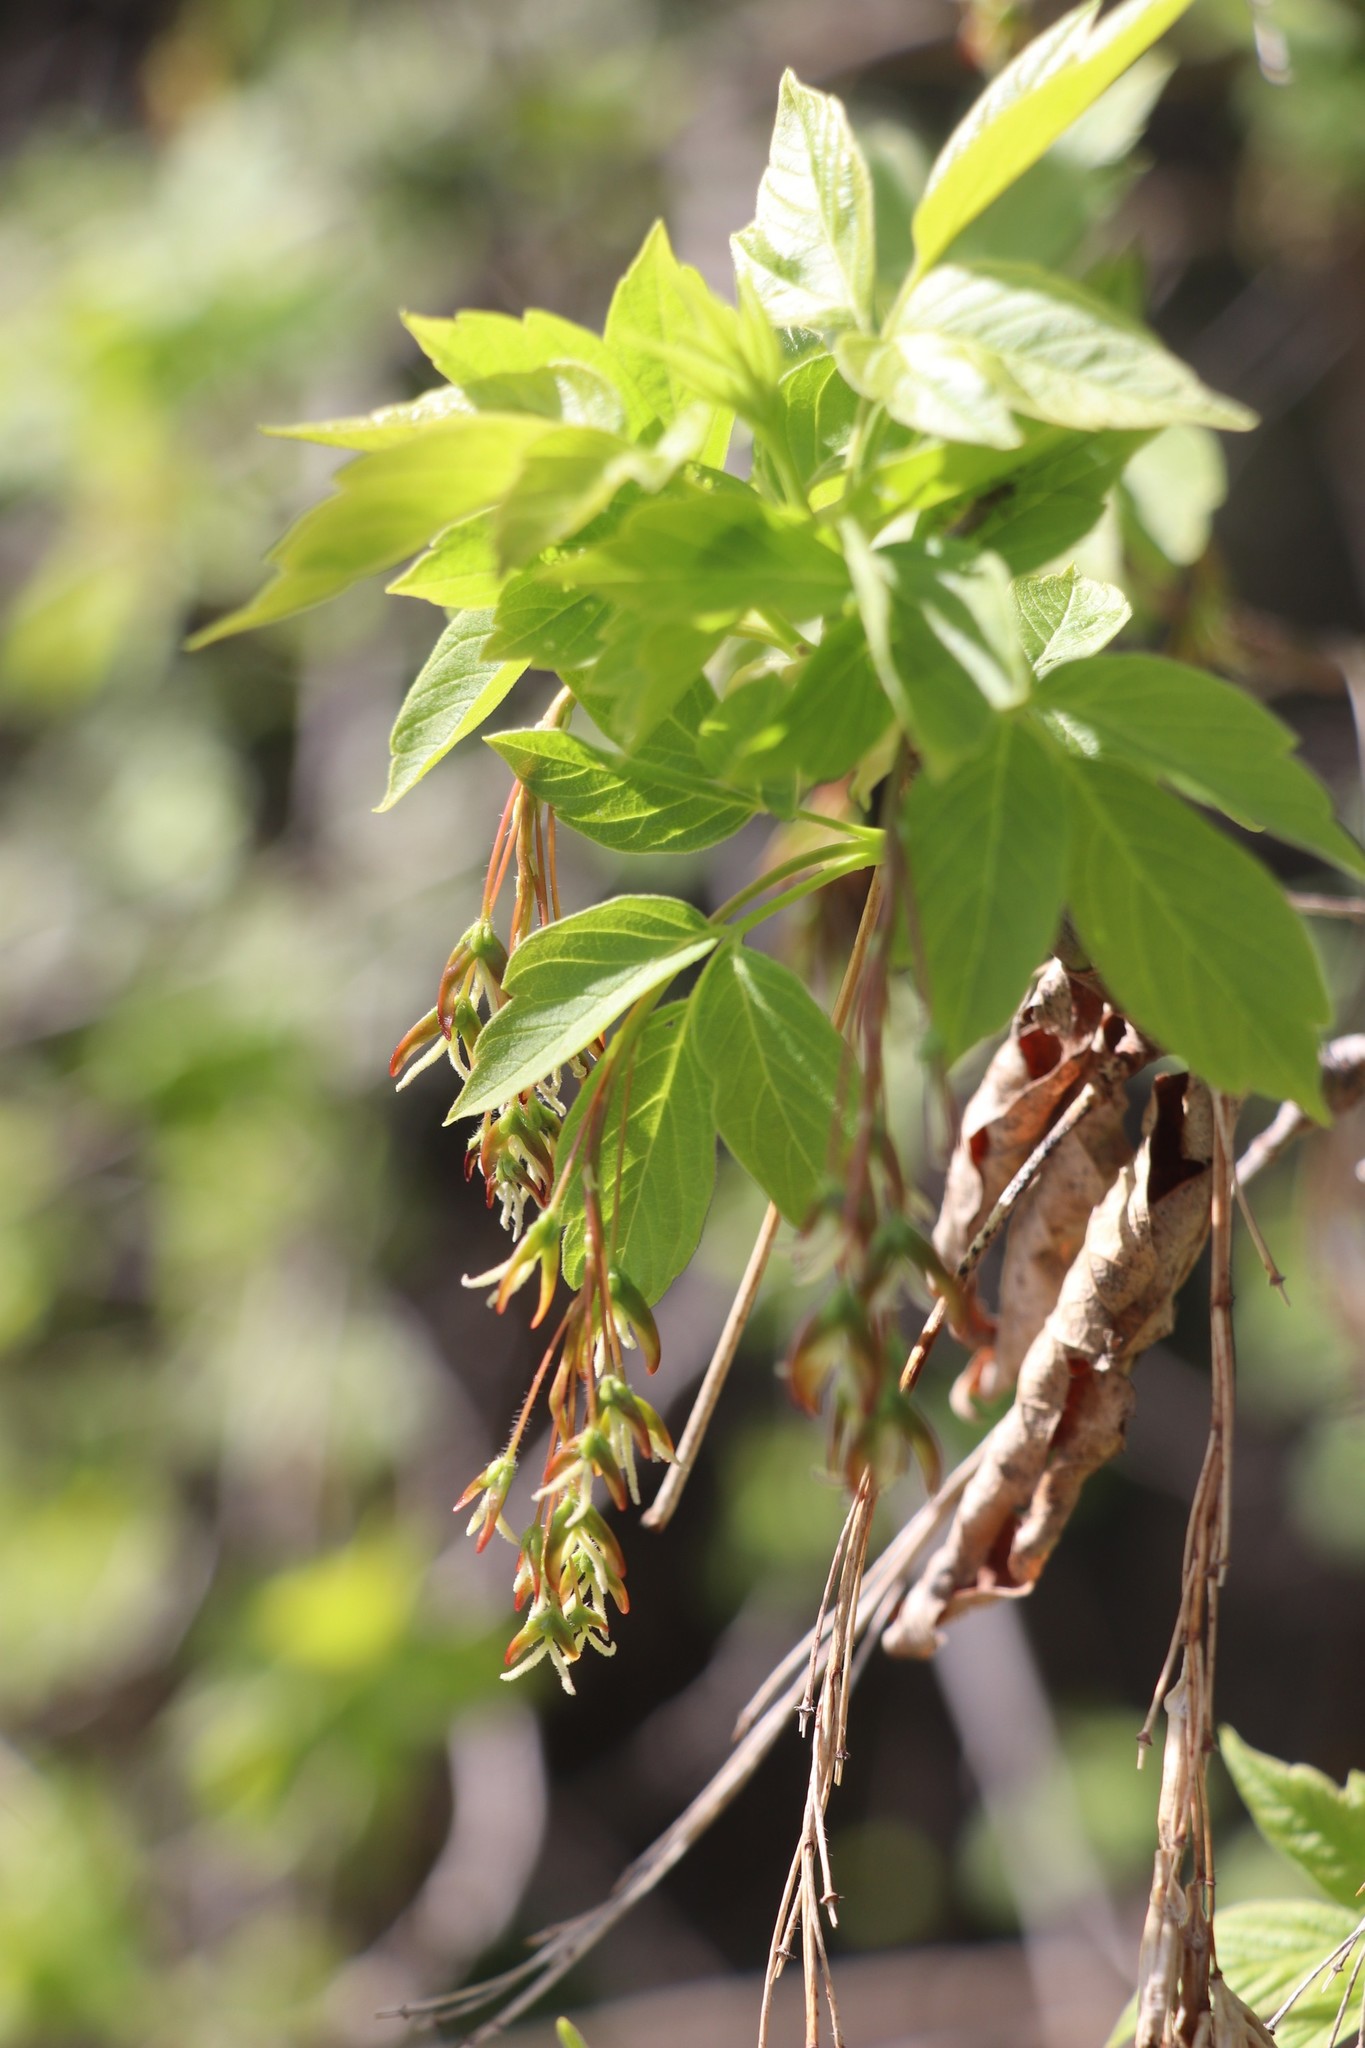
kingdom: Plantae
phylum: Tracheophyta
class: Magnoliopsida
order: Sapindales
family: Sapindaceae
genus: Acer
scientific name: Acer negundo
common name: Ashleaf maple
